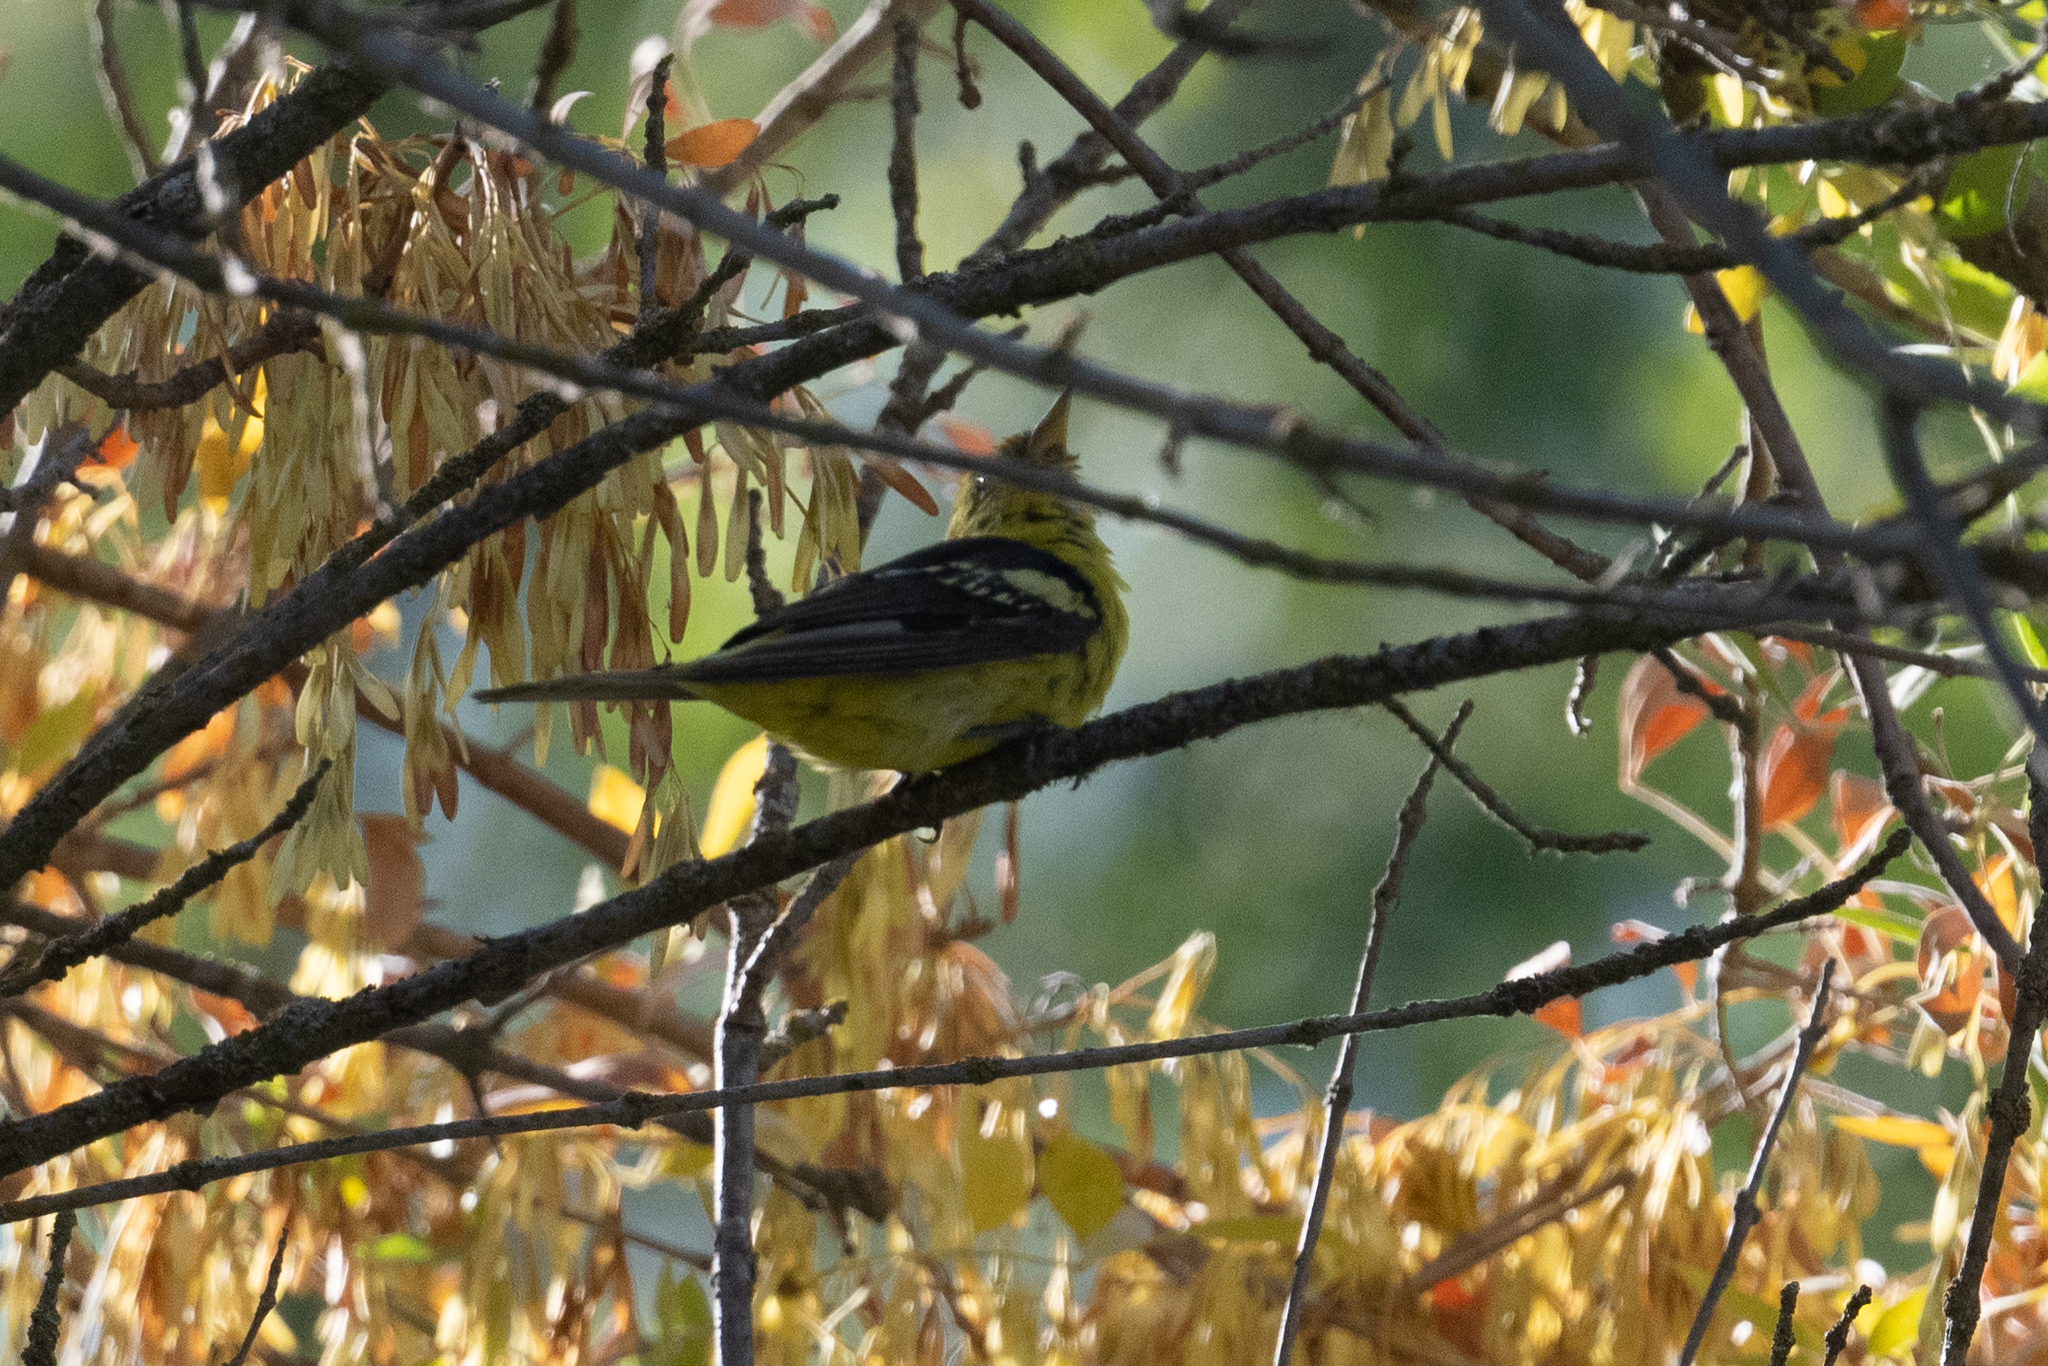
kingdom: Animalia
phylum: Chordata
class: Aves
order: Passeriformes
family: Cardinalidae
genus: Piranga
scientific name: Piranga ludoviciana
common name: Western tanager
